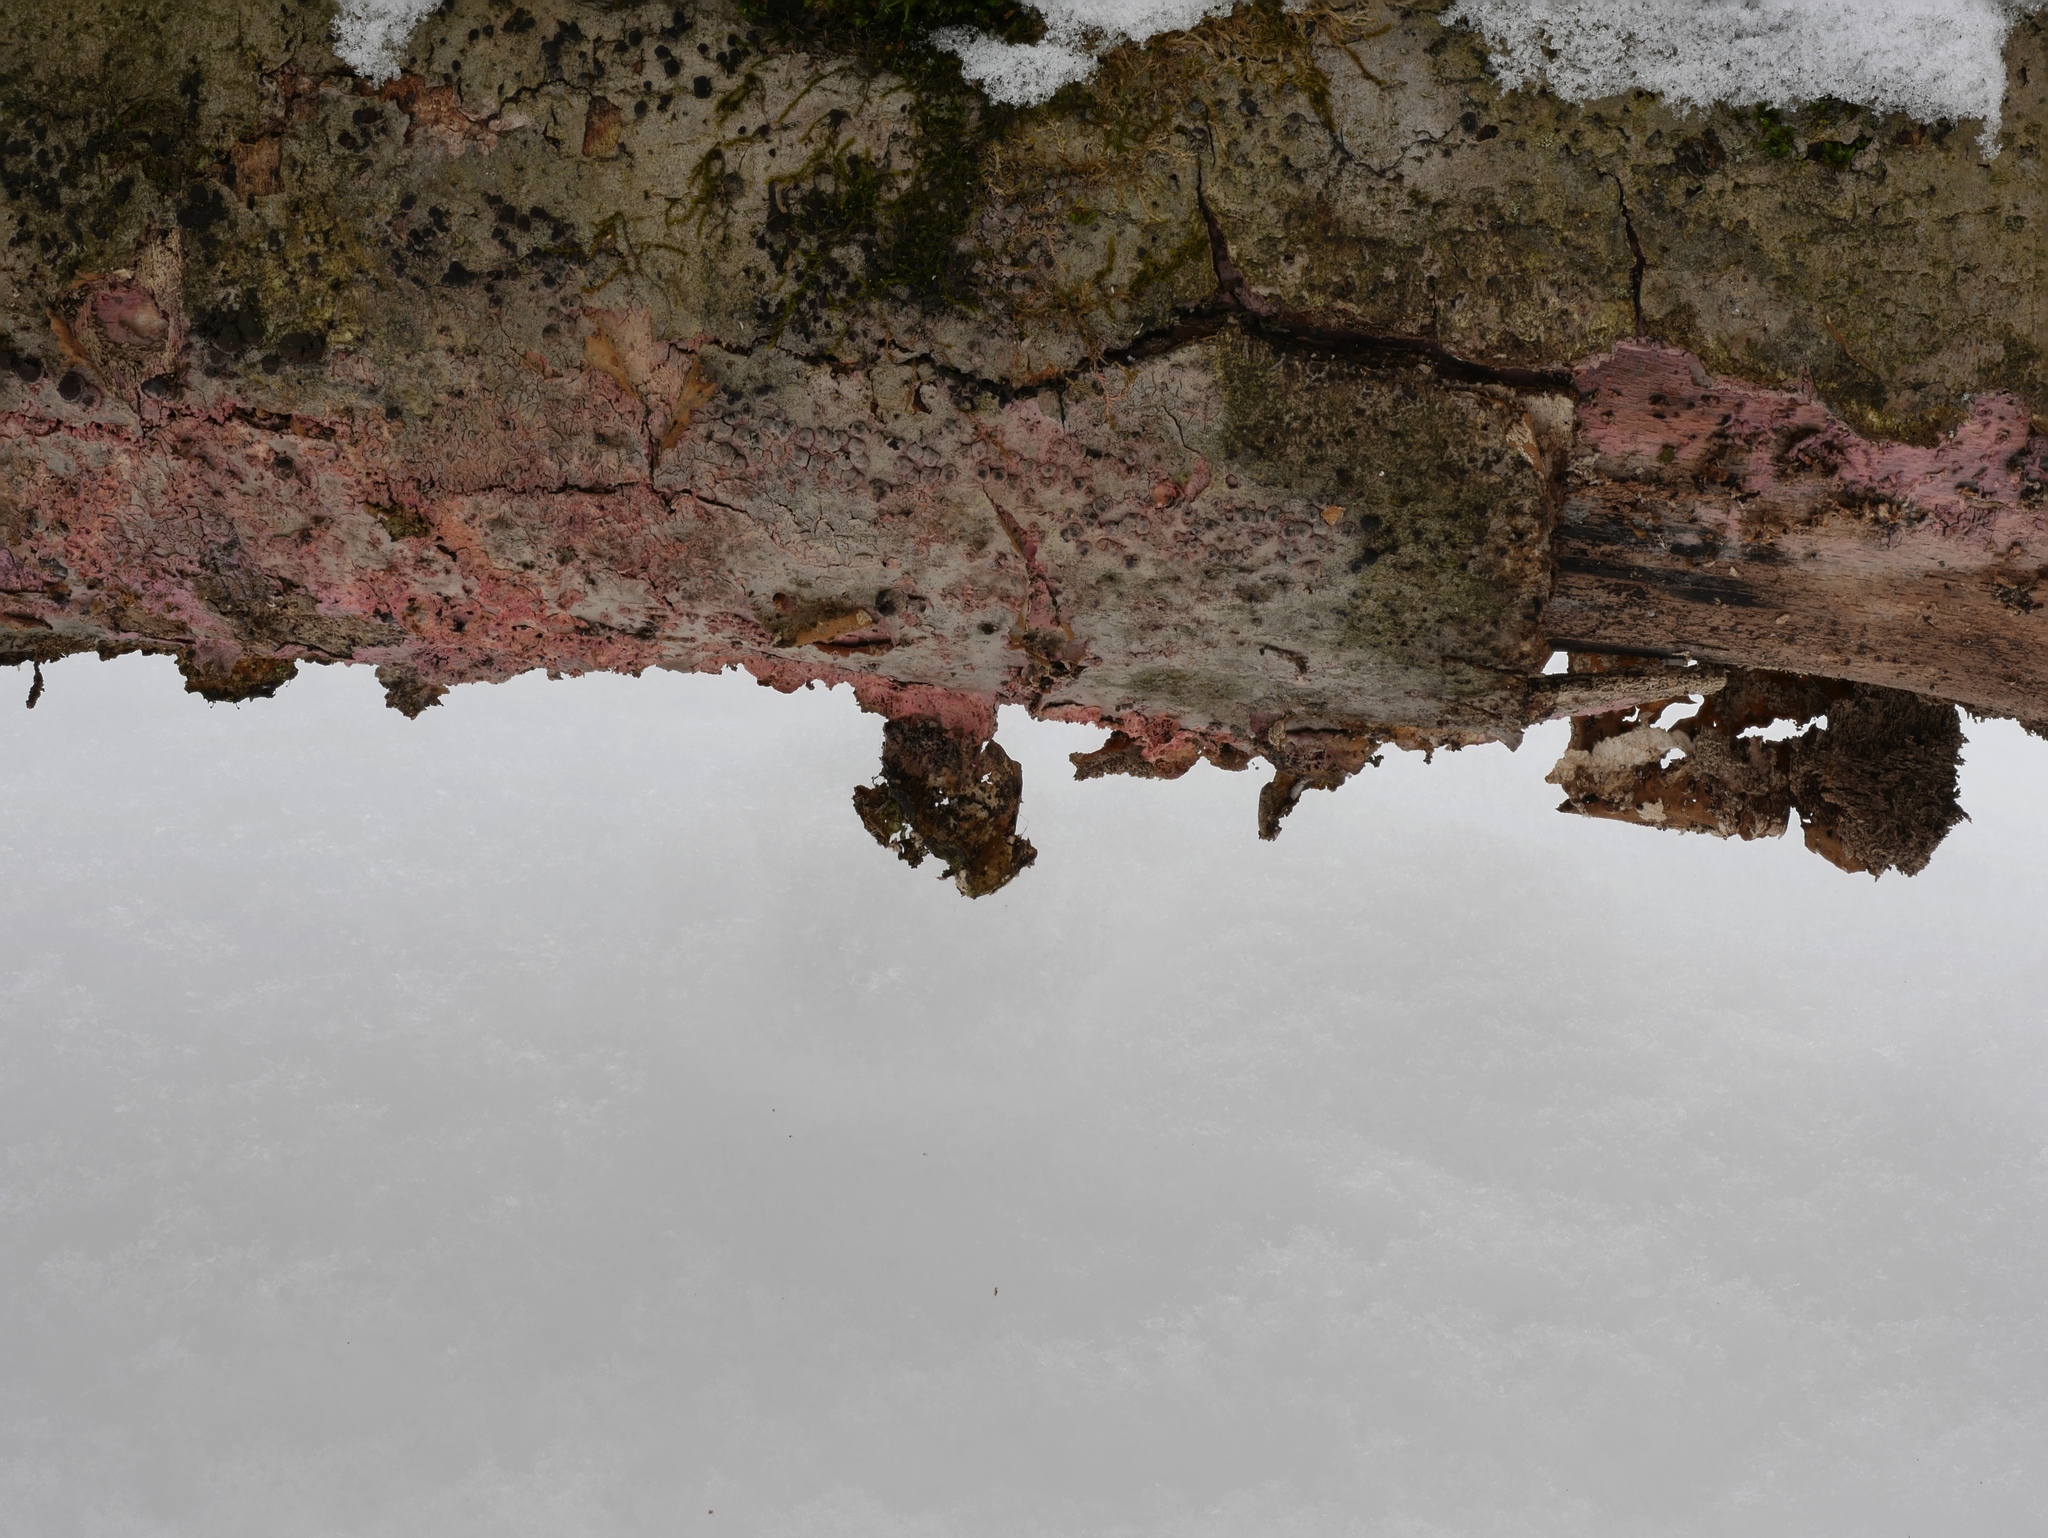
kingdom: Fungi
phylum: Basidiomycota
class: Agaricomycetes
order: Cantharellales
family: Tulasnellaceae
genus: Tulasnella
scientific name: Tulasnella violea
